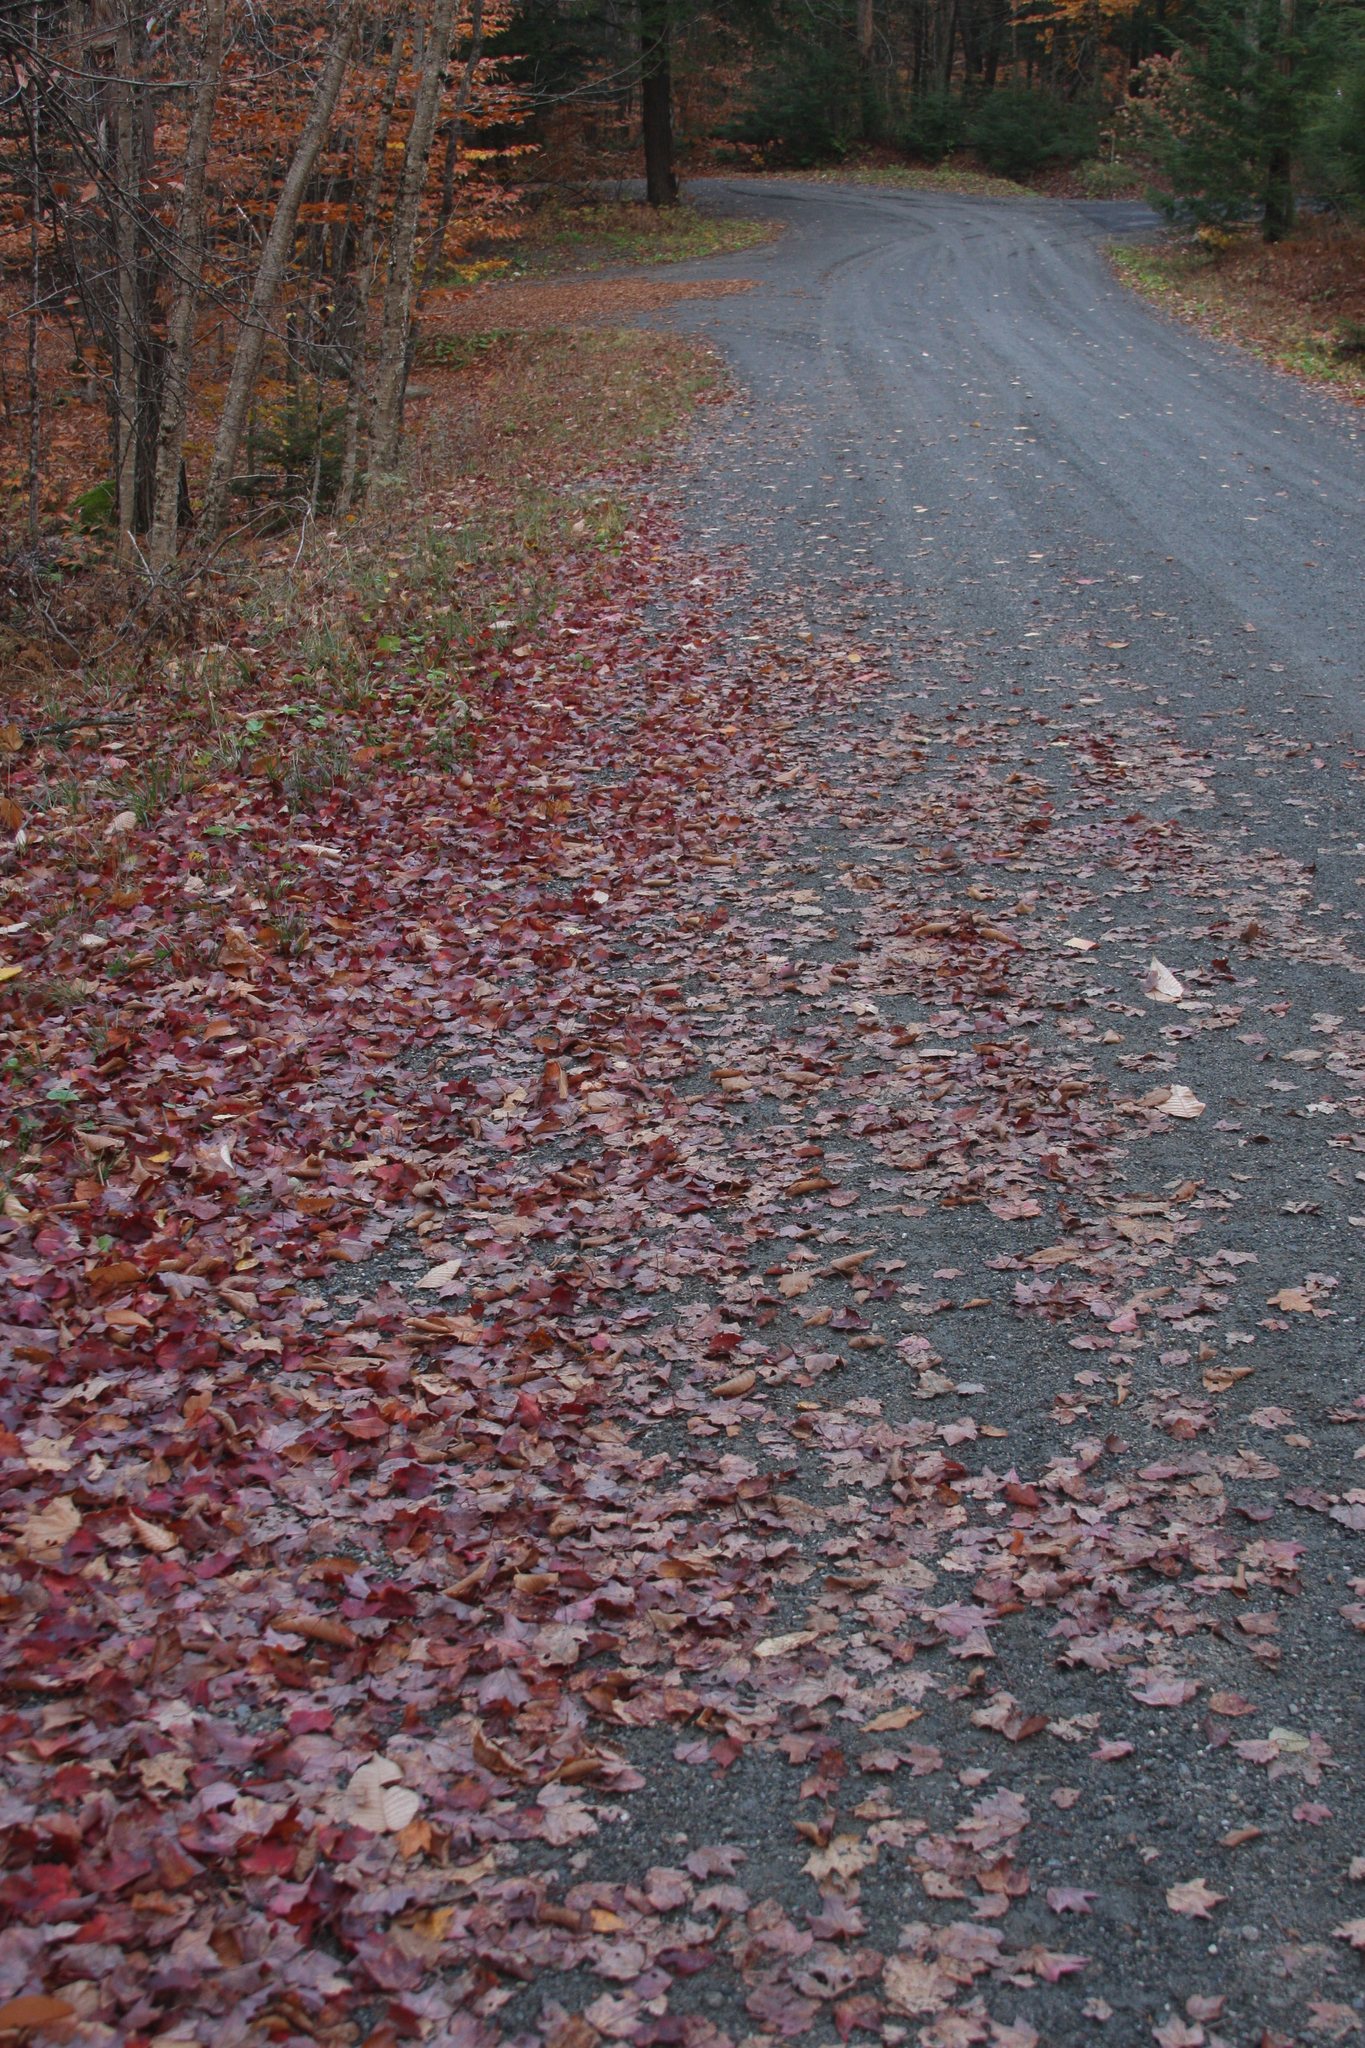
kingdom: Plantae
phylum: Tracheophyta
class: Magnoliopsida
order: Sapindales
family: Sapindaceae
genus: Acer
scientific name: Acer rubrum
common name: Red maple
